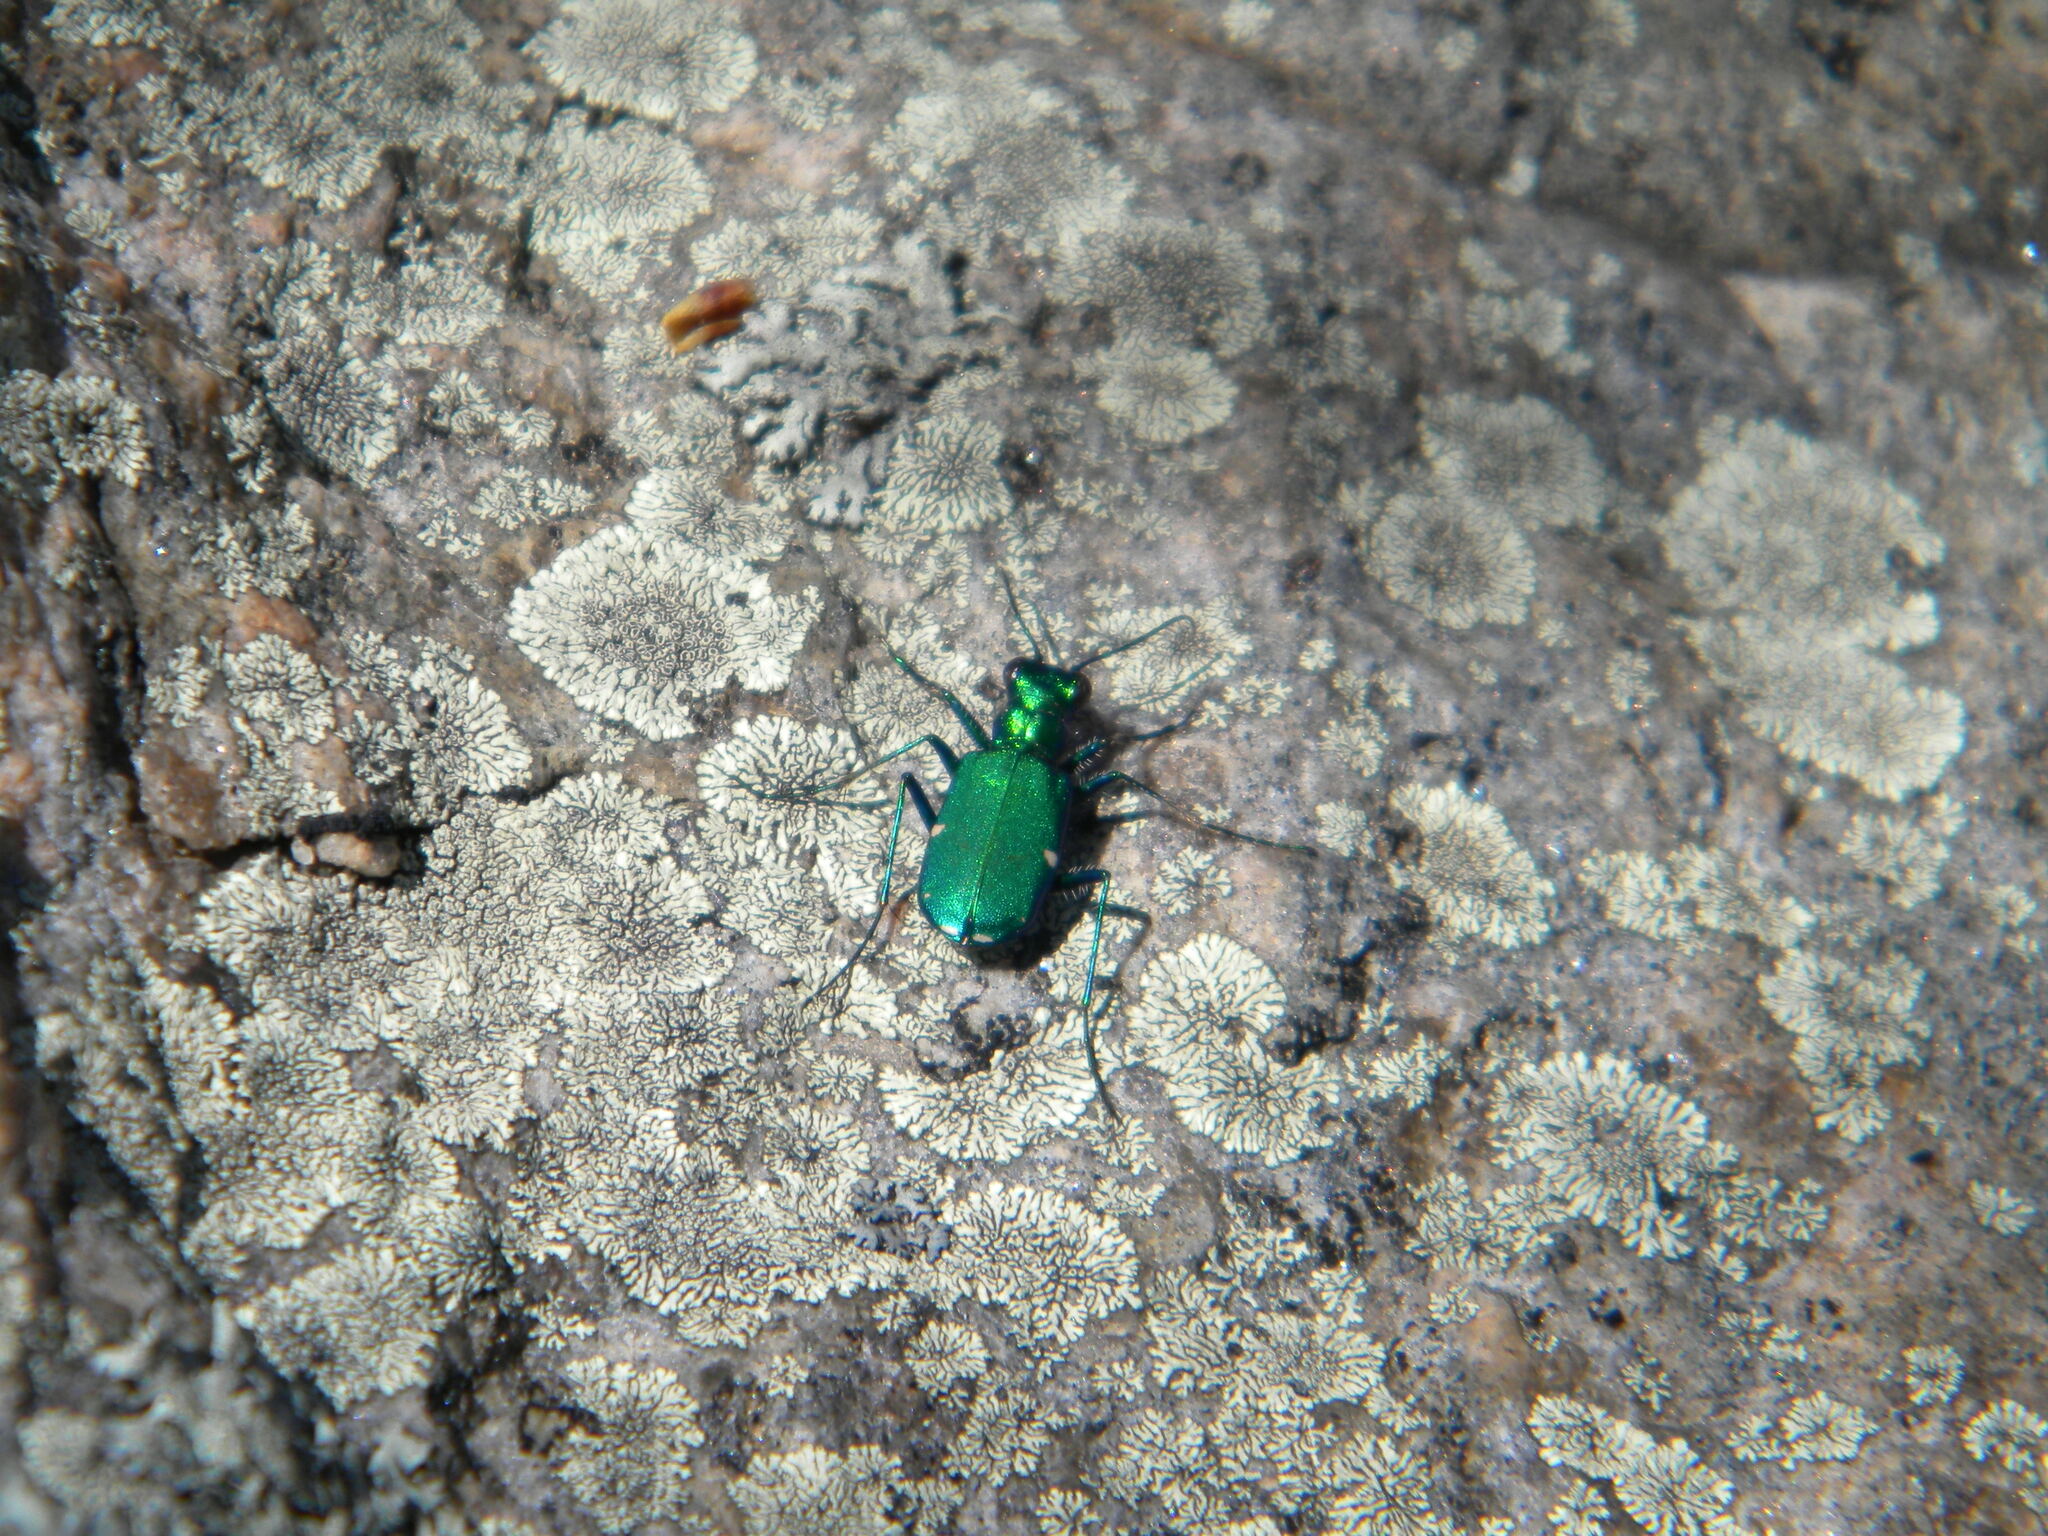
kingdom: Animalia
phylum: Arthropoda
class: Insecta
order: Coleoptera
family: Carabidae
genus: Cicindela
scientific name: Cicindela sexguttata
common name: Six-spotted tiger beetle
